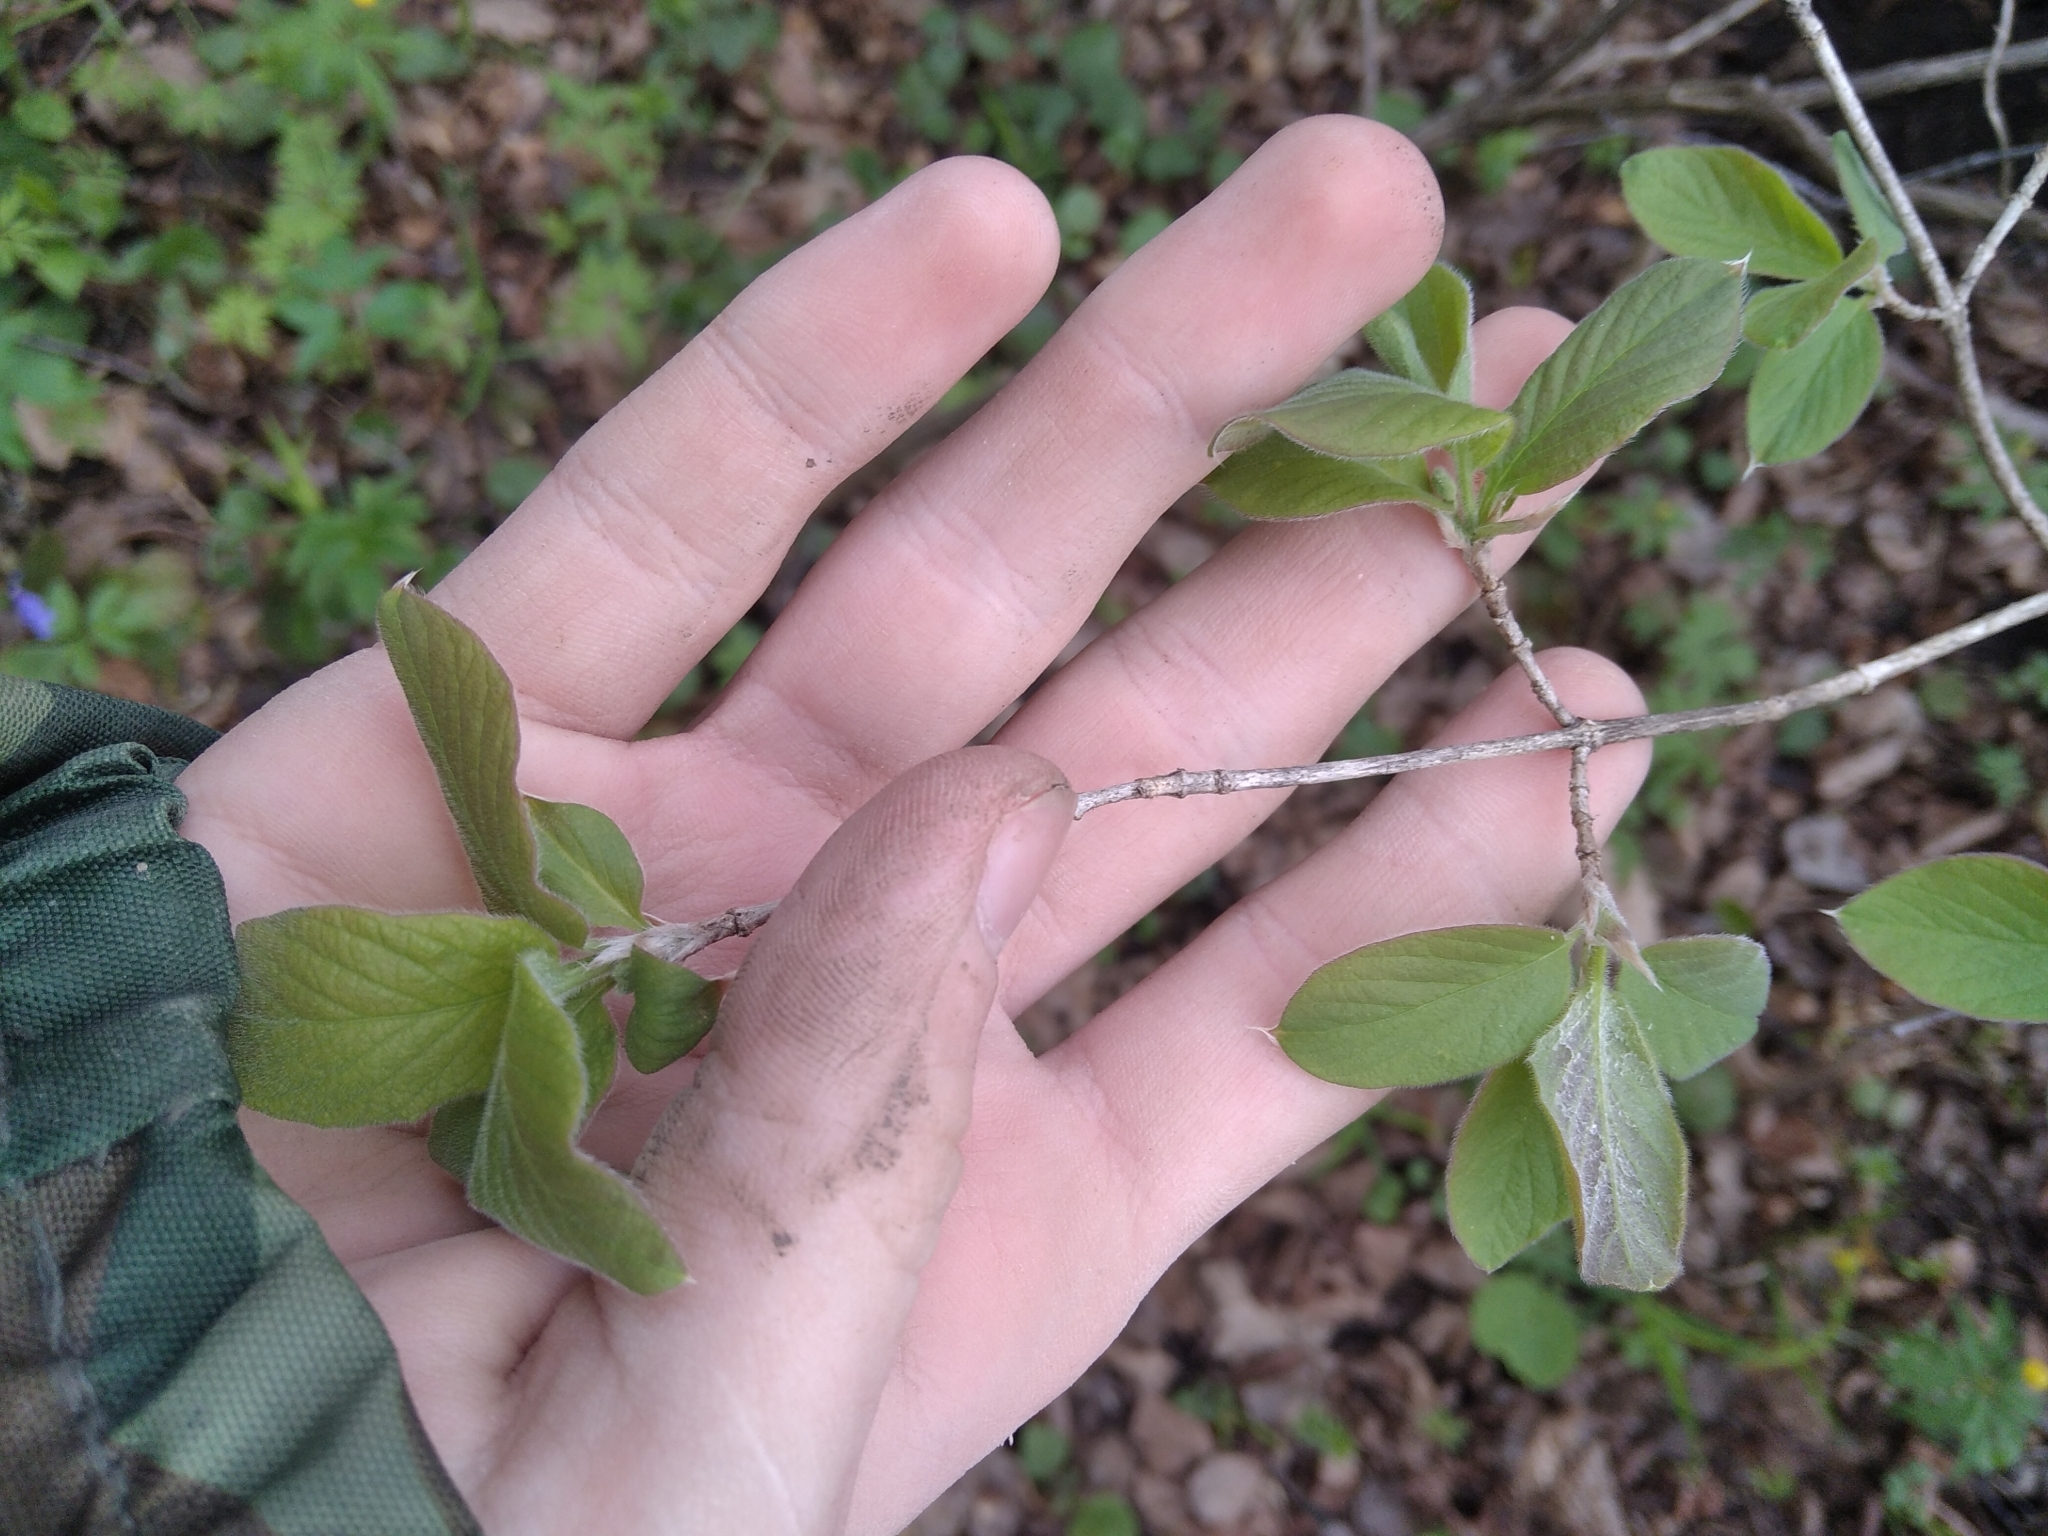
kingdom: Plantae
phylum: Tracheophyta
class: Magnoliopsida
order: Dipsacales
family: Caprifoliaceae
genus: Lonicera
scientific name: Lonicera xylosteum
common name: Fly honeysuckle
